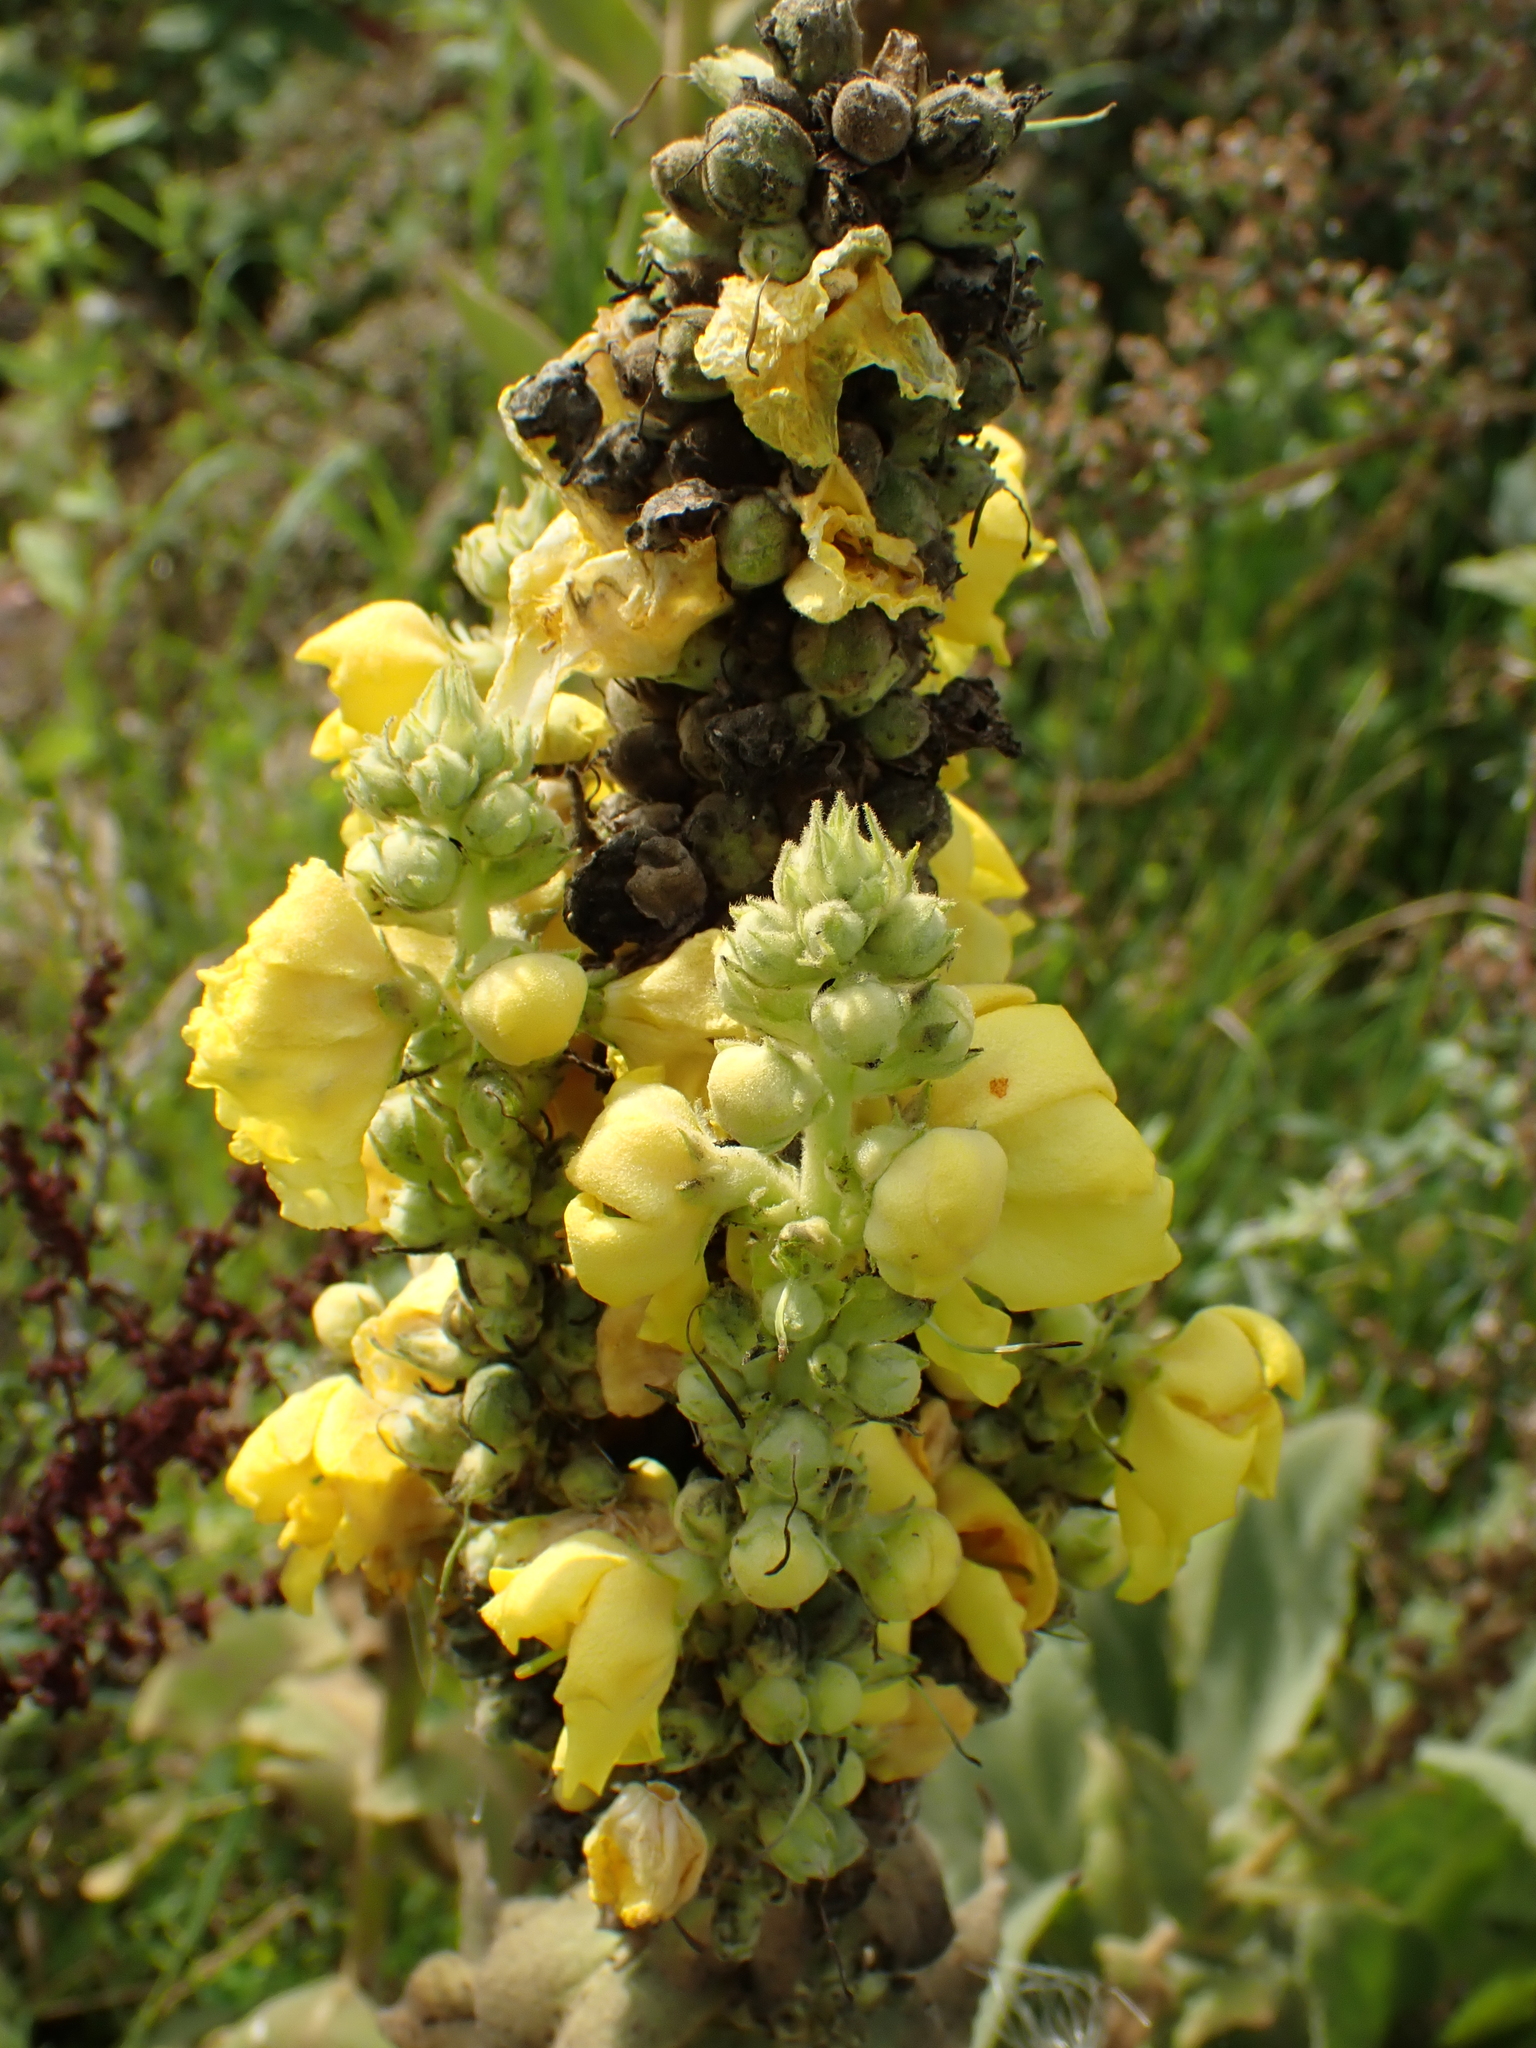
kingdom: Plantae
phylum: Tracheophyta
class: Magnoliopsida
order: Lamiales
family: Scrophulariaceae
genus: Verbascum
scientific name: Verbascum phlomoides
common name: Orange mullein
